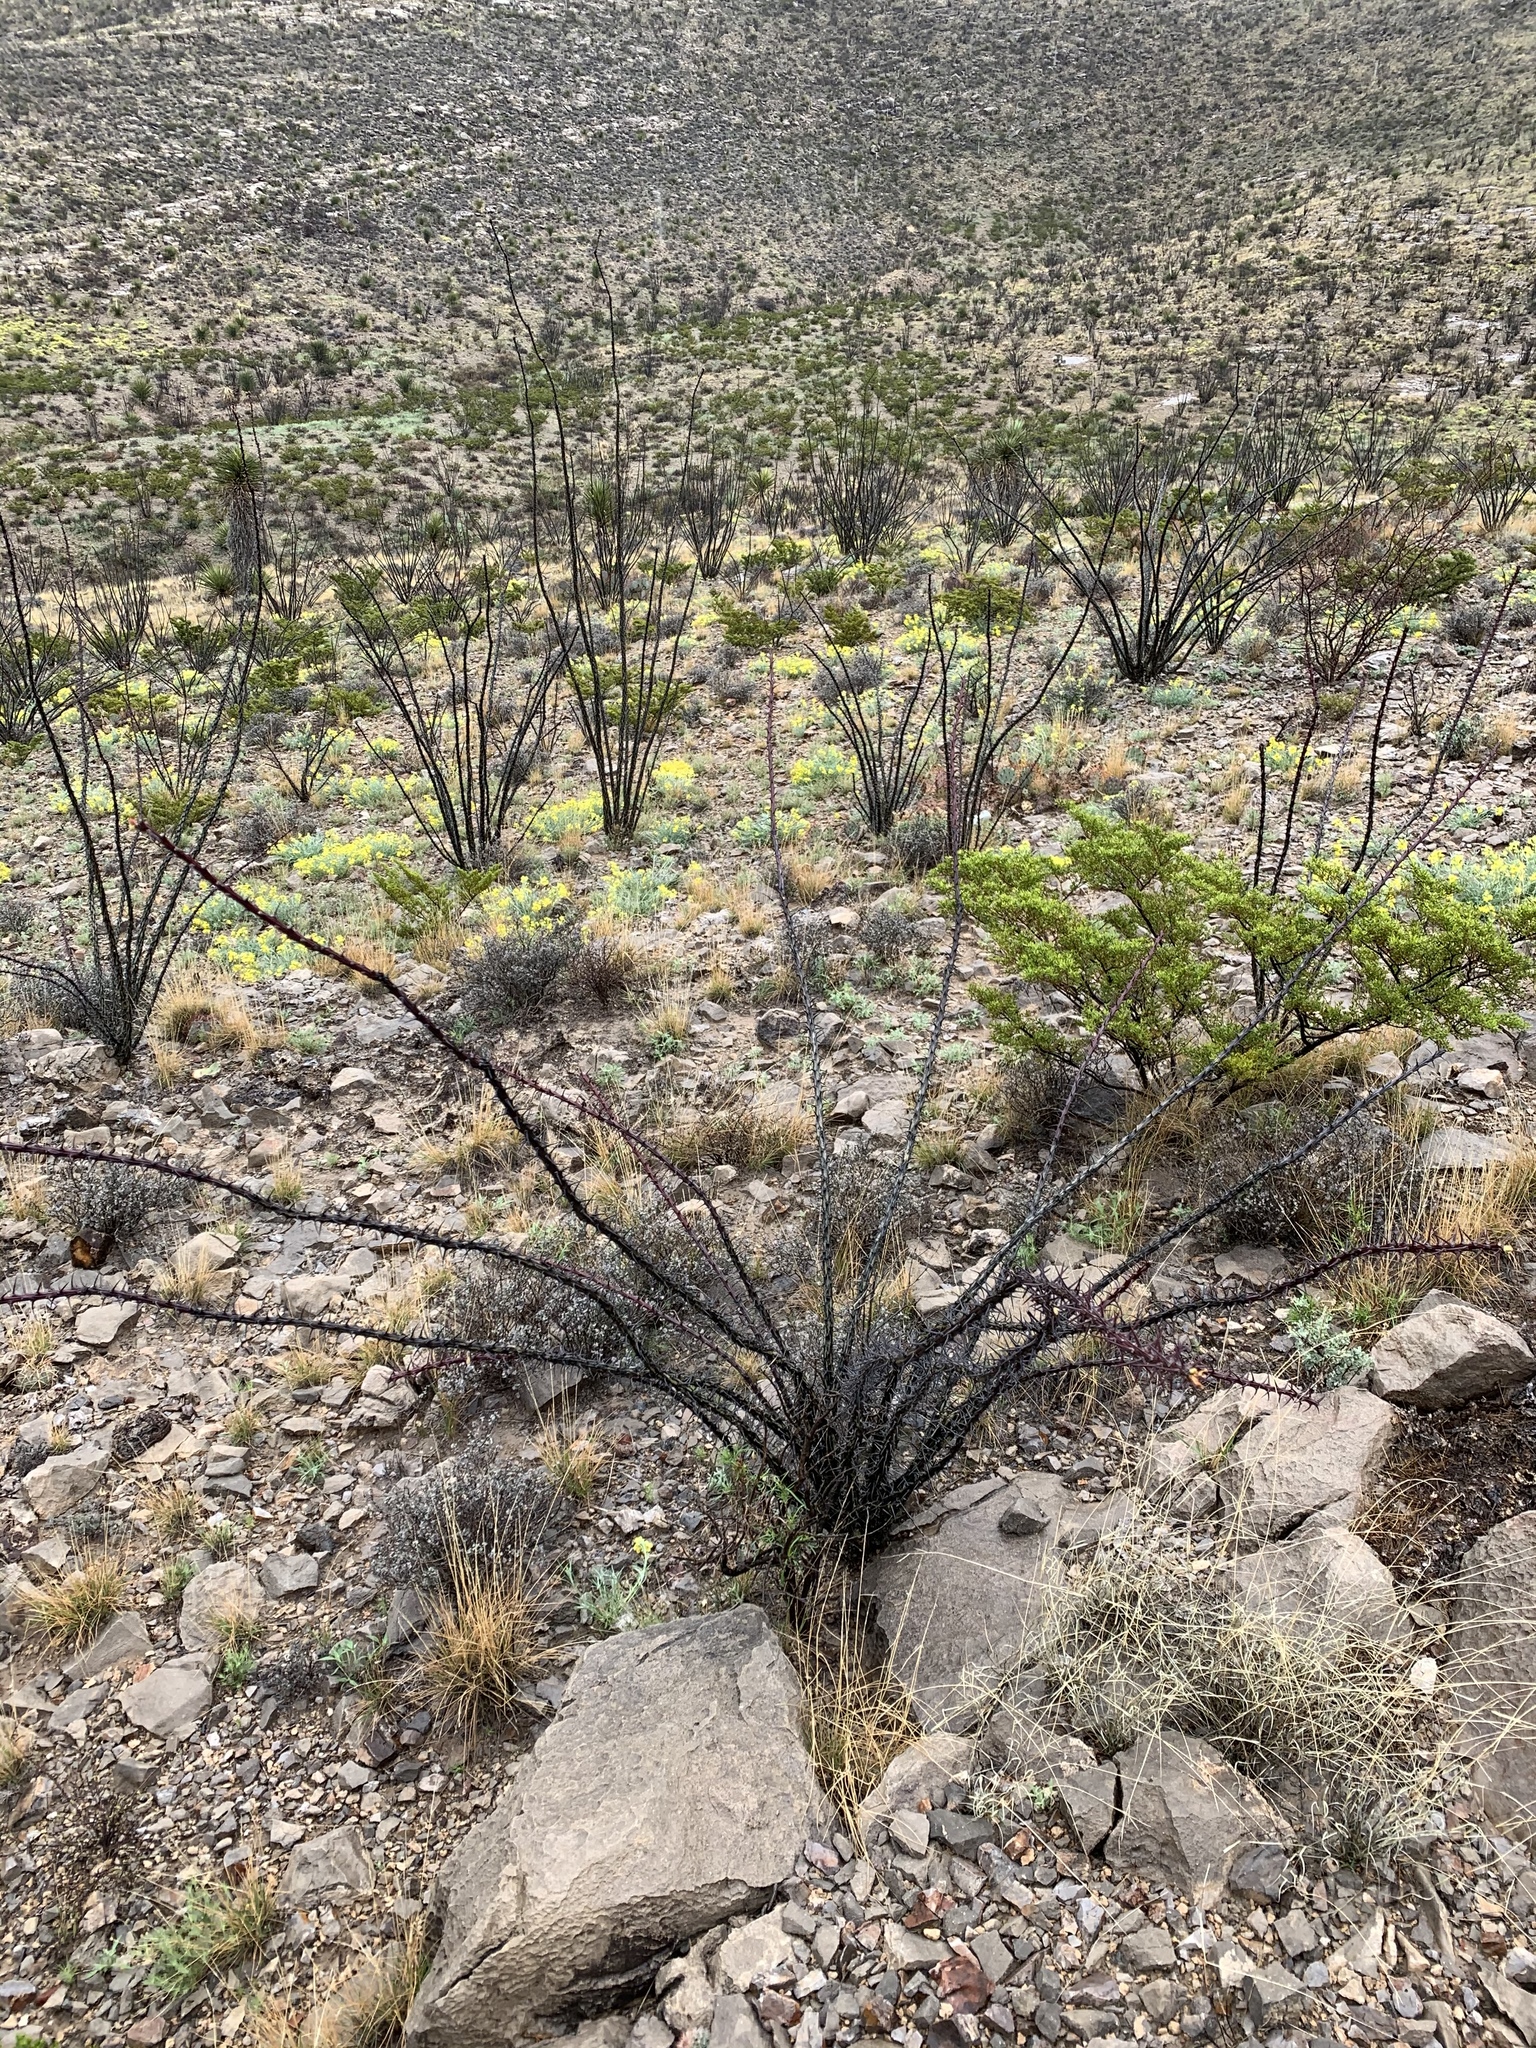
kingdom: Plantae
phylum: Tracheophyta
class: Magnoliopsida
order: Ericales
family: Fouquieriaceae
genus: Fouquieria
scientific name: Fouquieria splendens
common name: Vine-cactus
